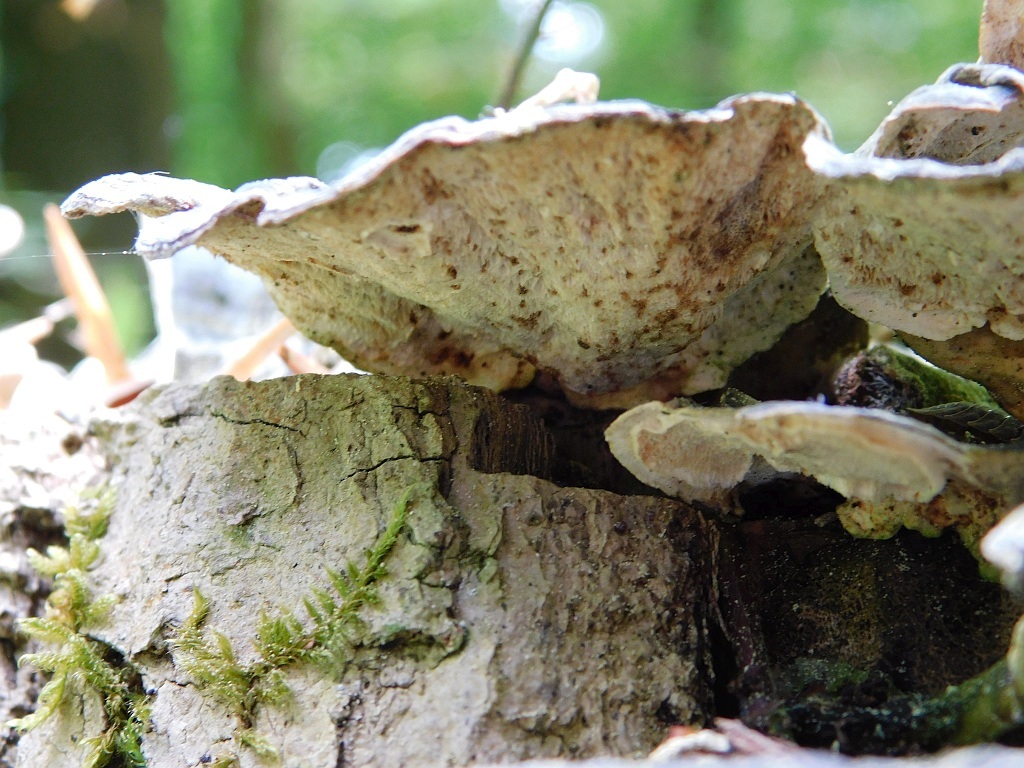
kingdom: Fungi
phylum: Basidiomycota
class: Agaricomycetes
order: Polyporales
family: Polyporaceae
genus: Trametes
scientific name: Trametes versicolor
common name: Turkeytail
